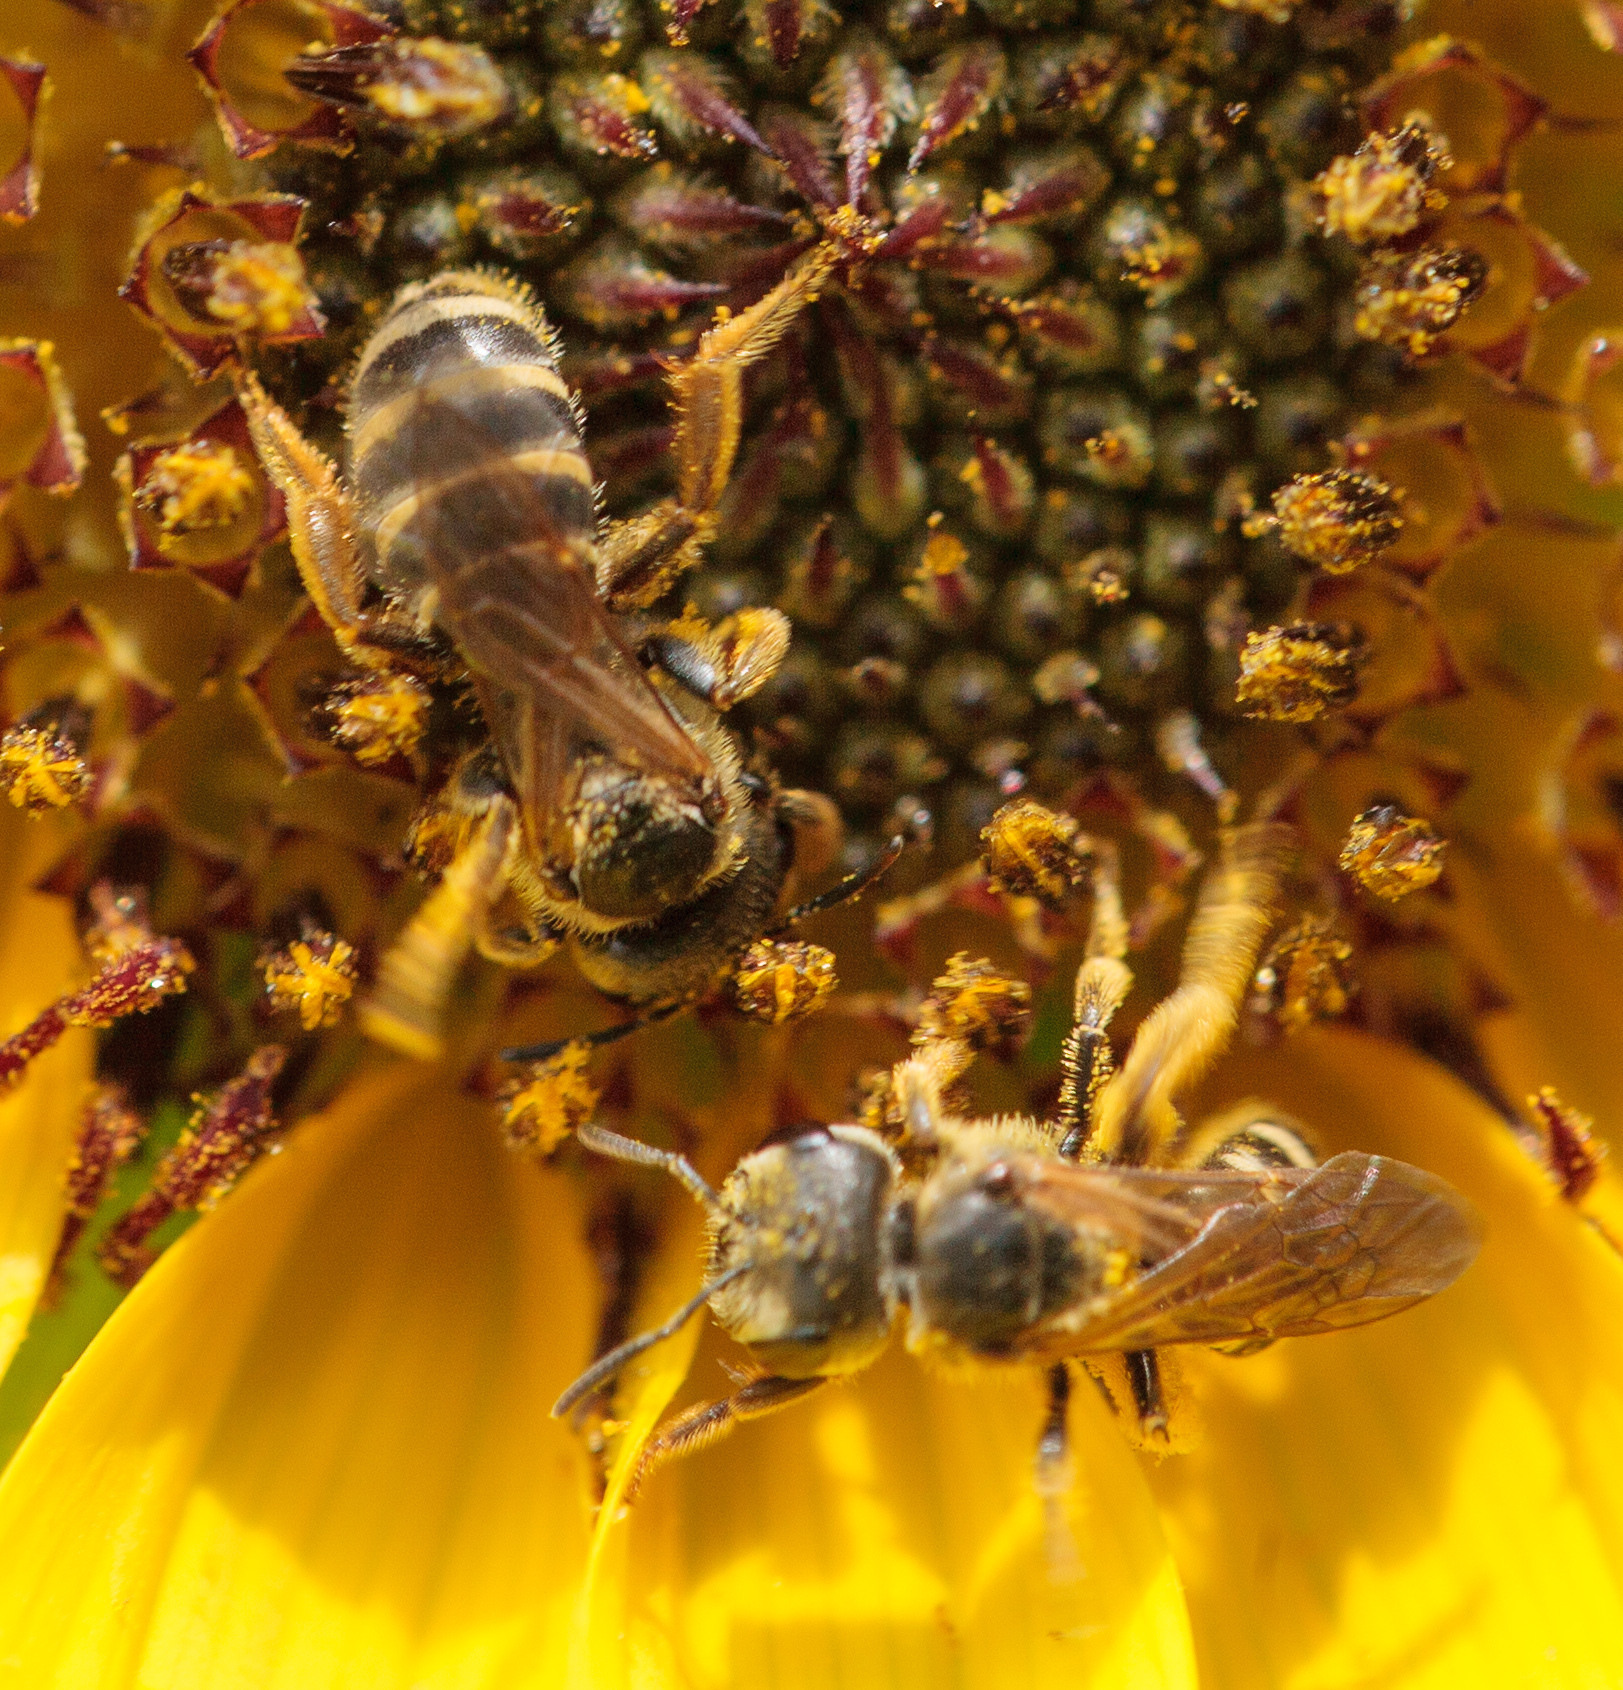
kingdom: Animalia
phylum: Arthropoda
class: Insecta
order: Hymenoptera
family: Halictidae
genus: Halictus
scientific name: Halictus ligatus
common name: Ligated furrow bee
